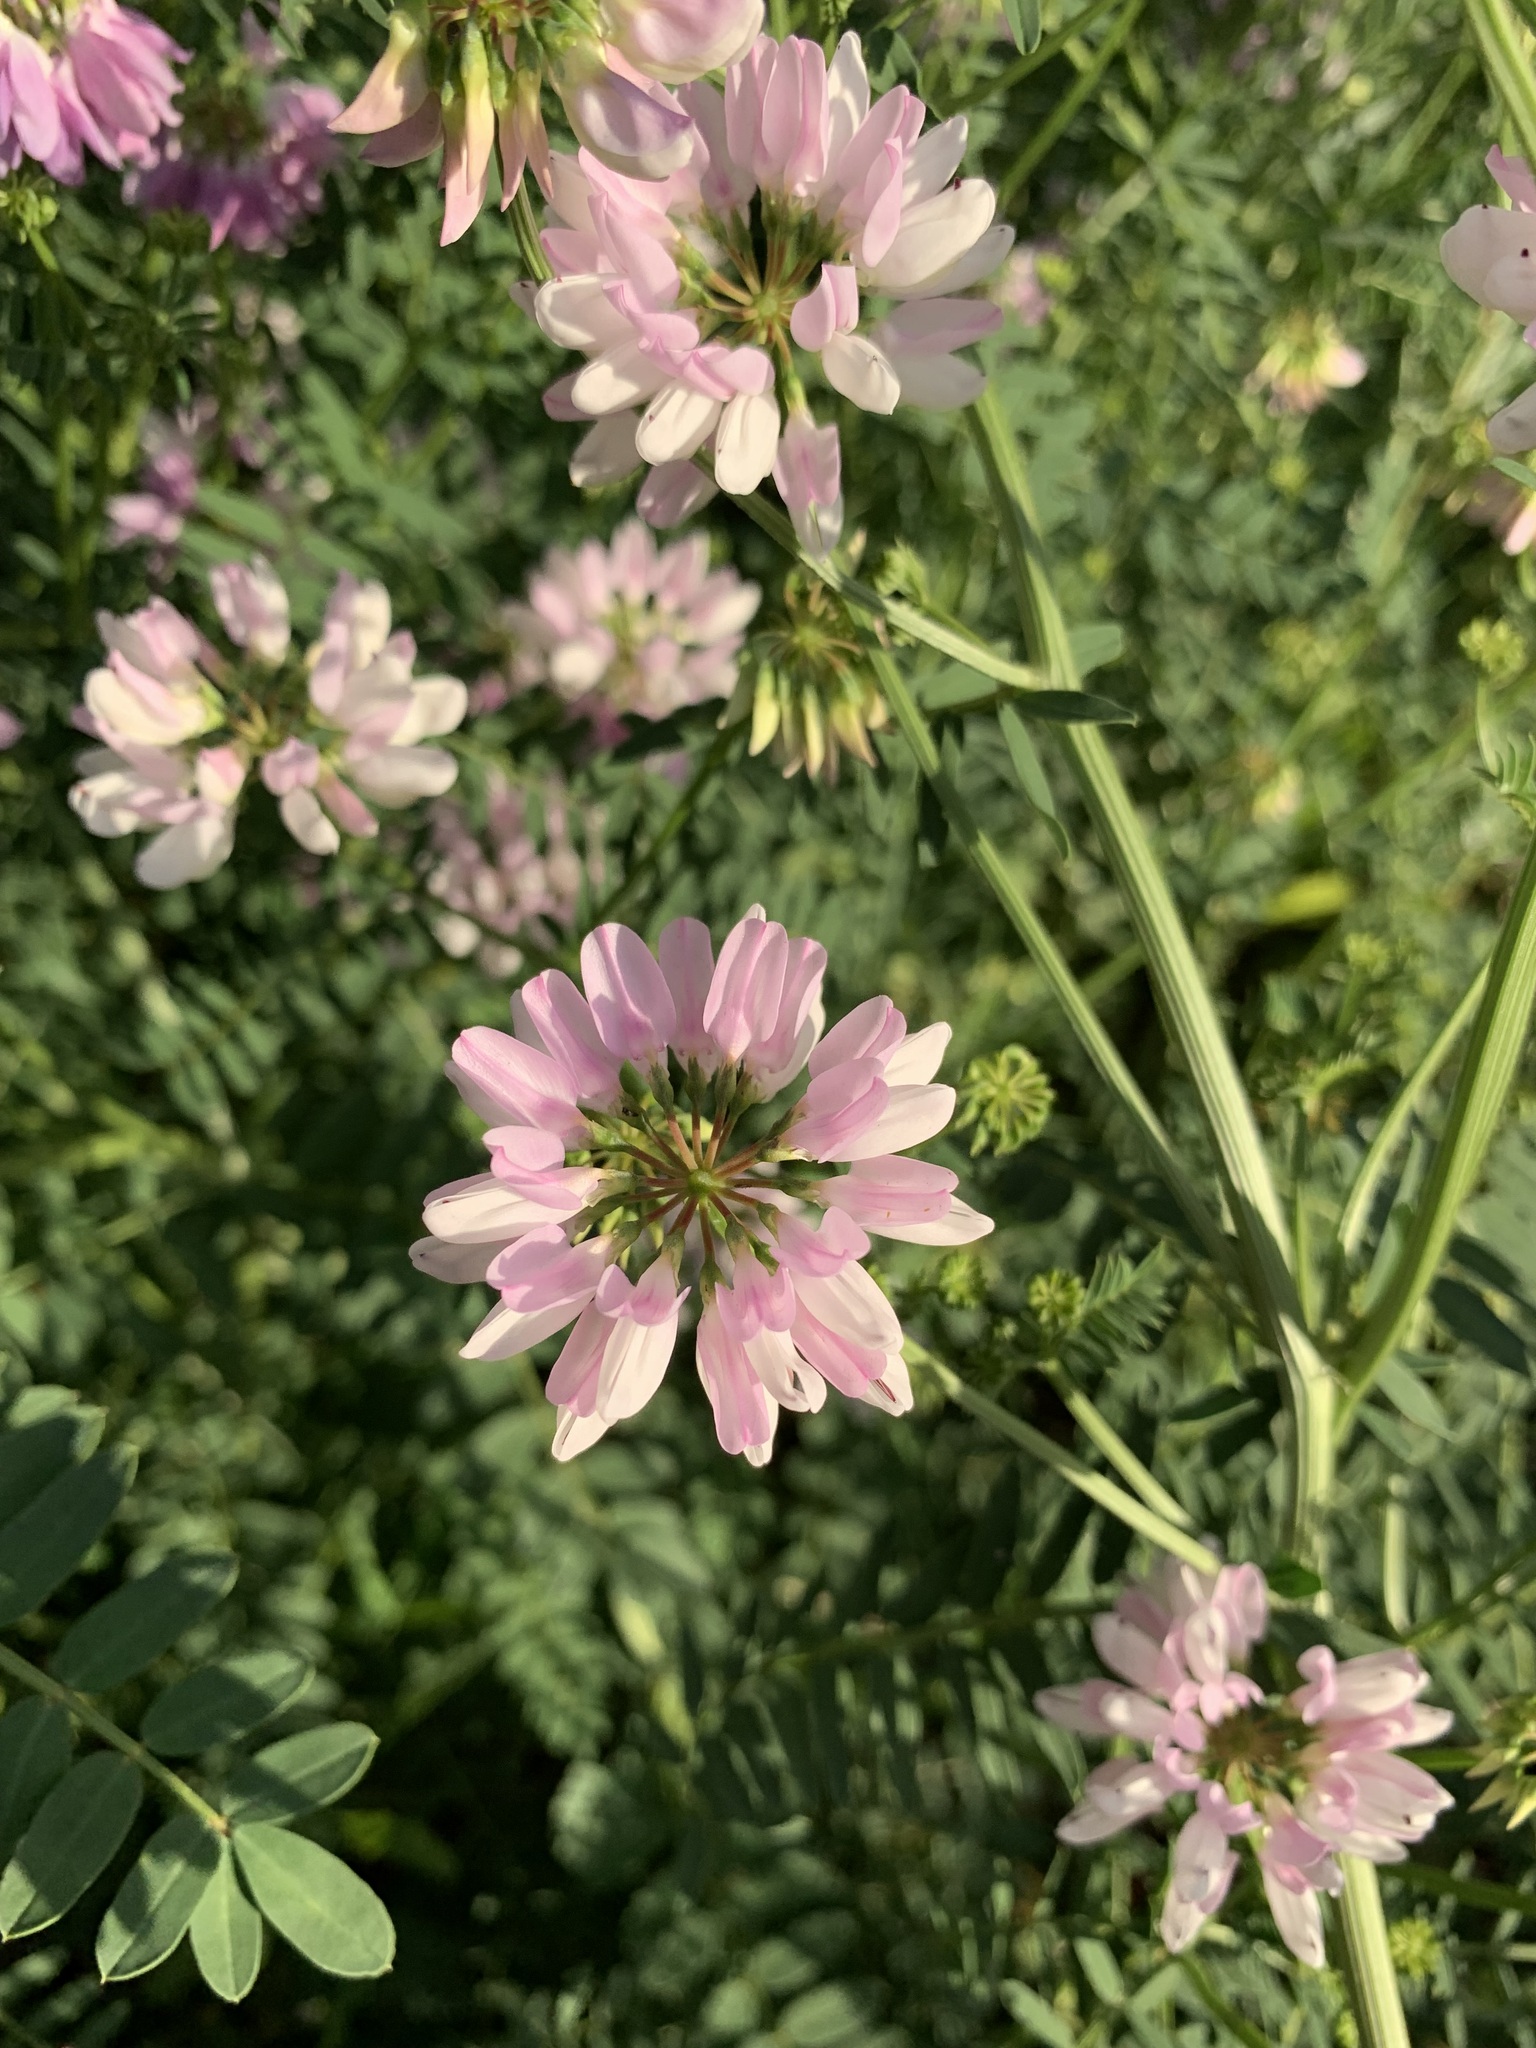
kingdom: Plantae
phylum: Tracheophyta
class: Magnoliopsida
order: Fabales
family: Fabaceae
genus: Coronilla
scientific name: Coronilla varia
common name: Crownvetch
